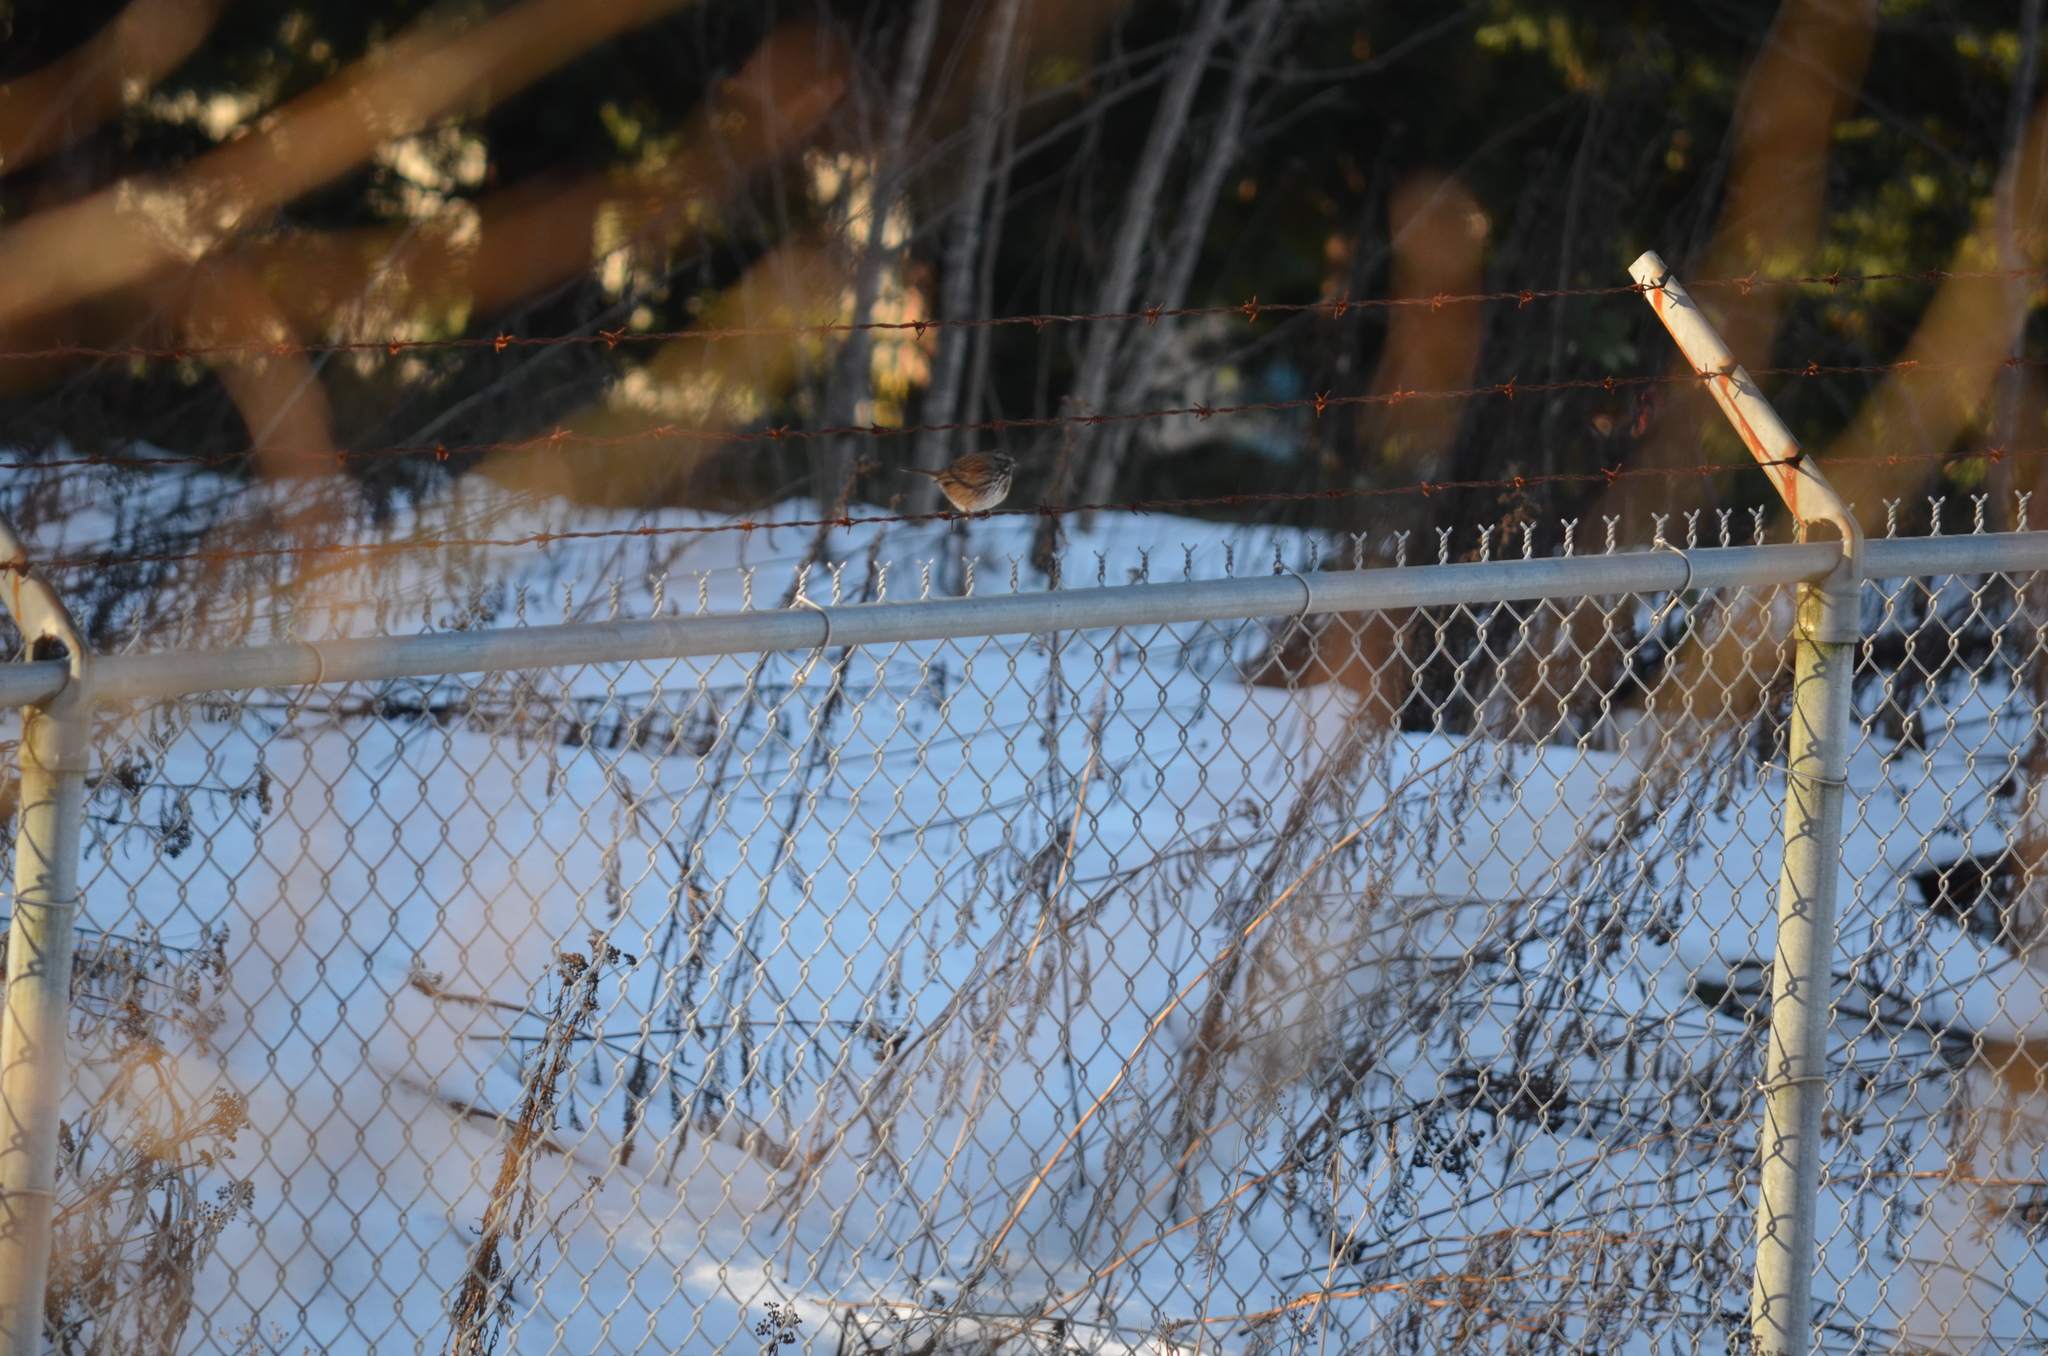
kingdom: Animalia
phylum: Chordata
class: Aves
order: Passeriformes
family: Passerellidae
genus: Melospiza
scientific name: Melospiza melodia
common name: Song sparrow
